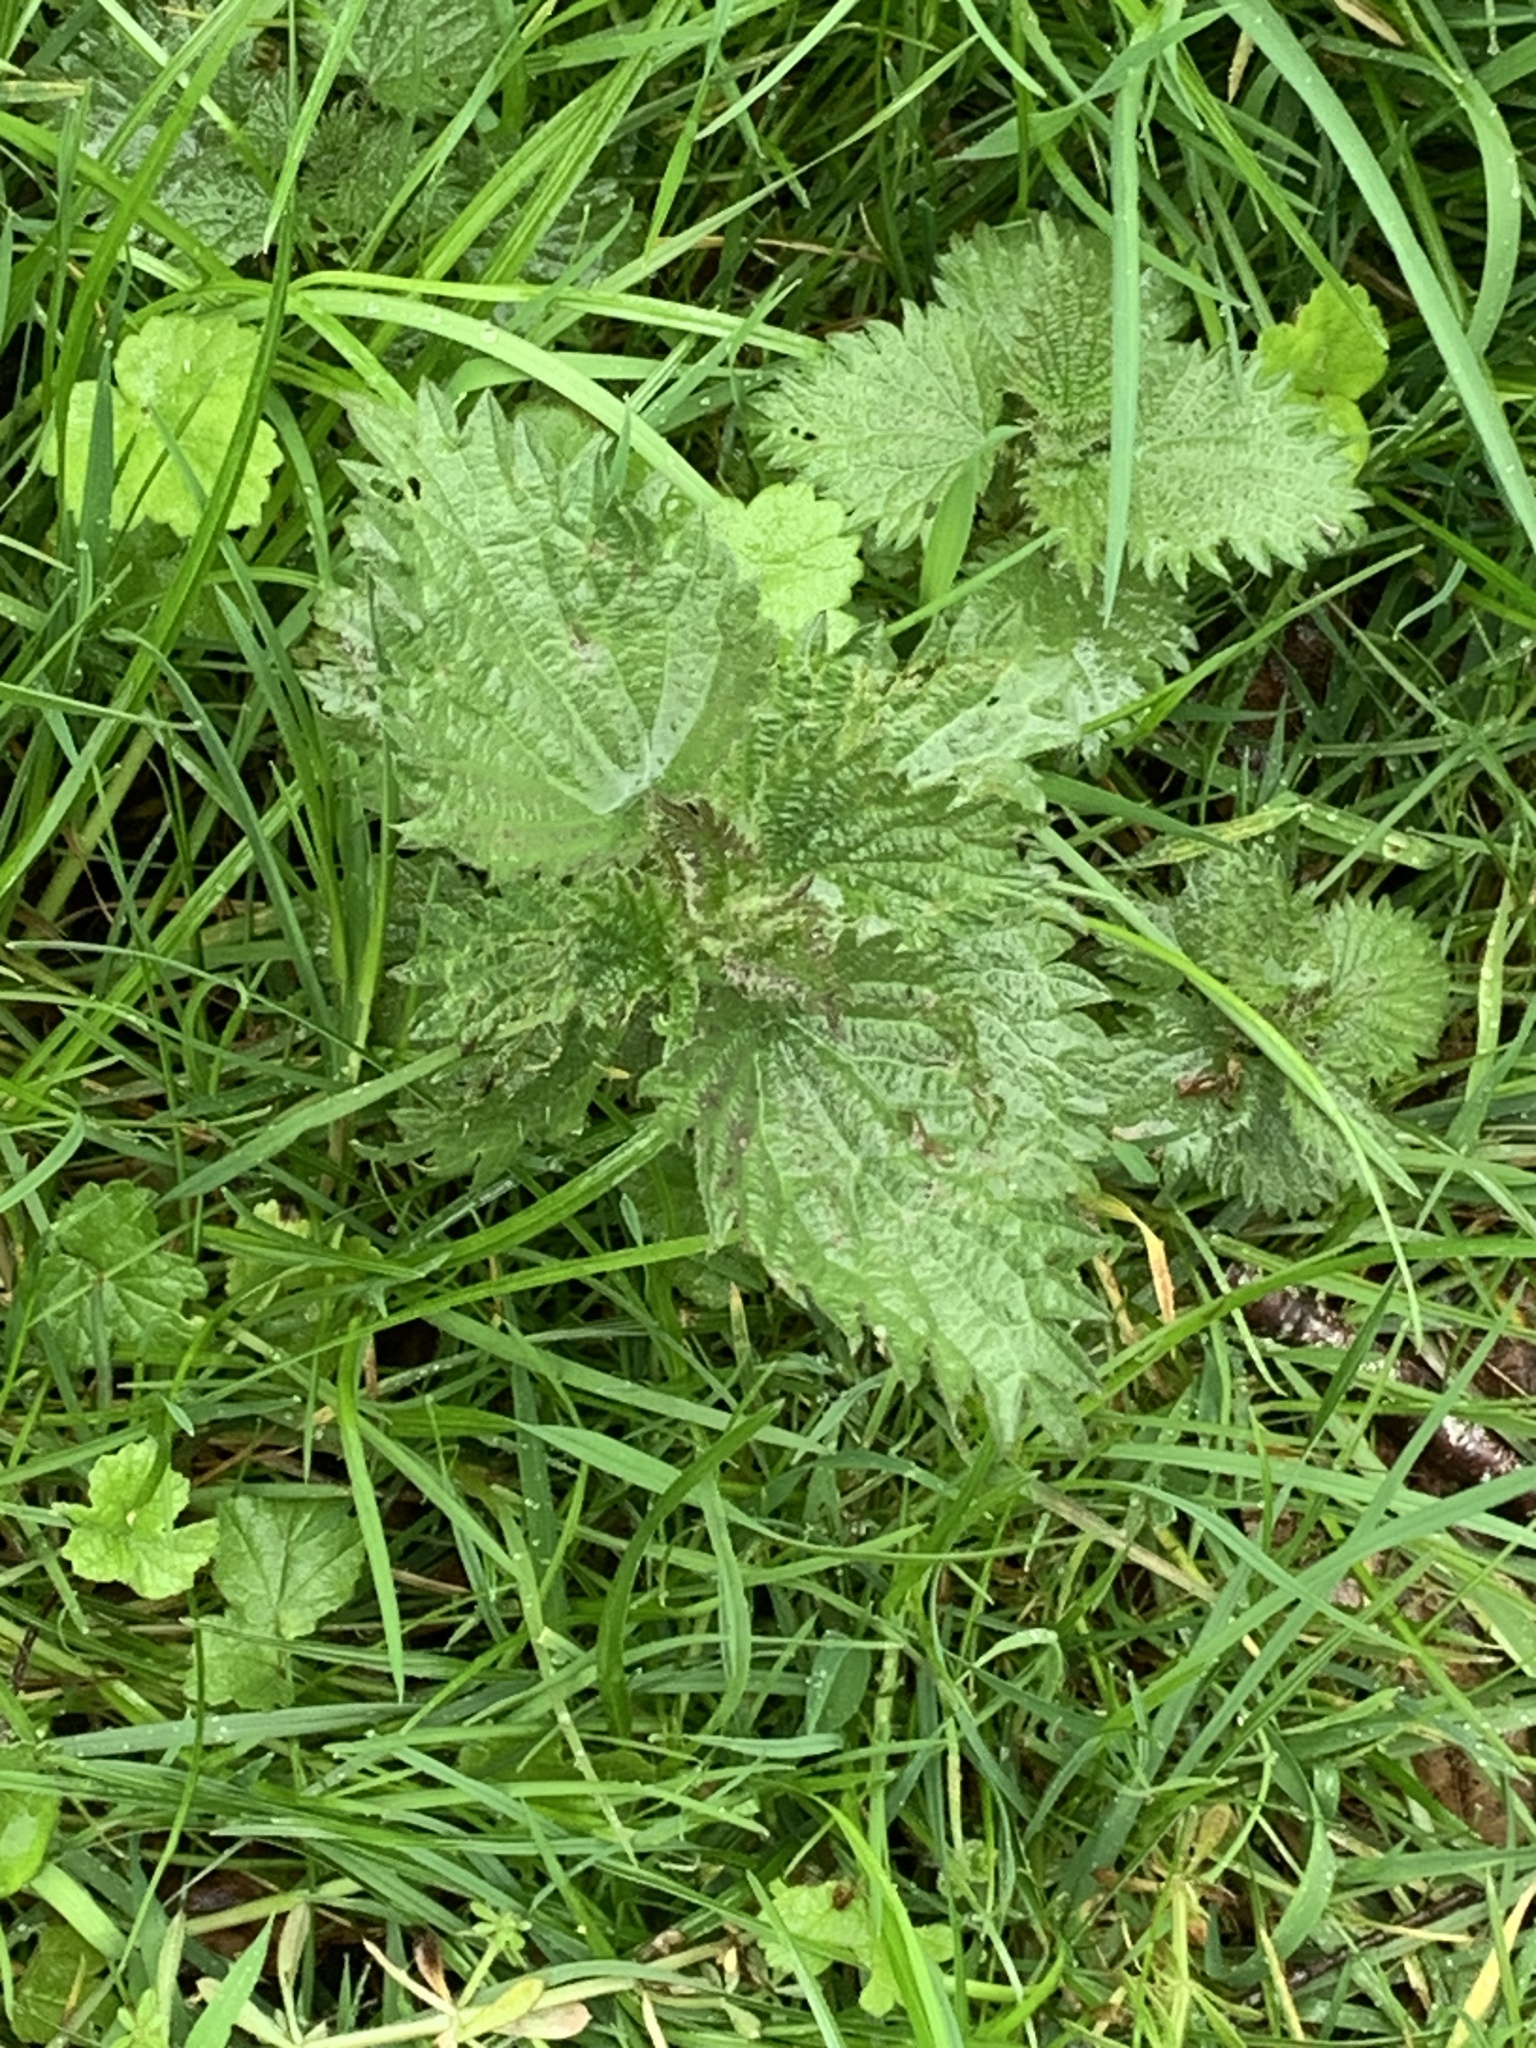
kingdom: Plantae
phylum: Tracheophyta
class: Magnoliopsida
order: Rosales
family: Urticaceae
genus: Urtica
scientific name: Urtica dioica
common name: Common nettle
